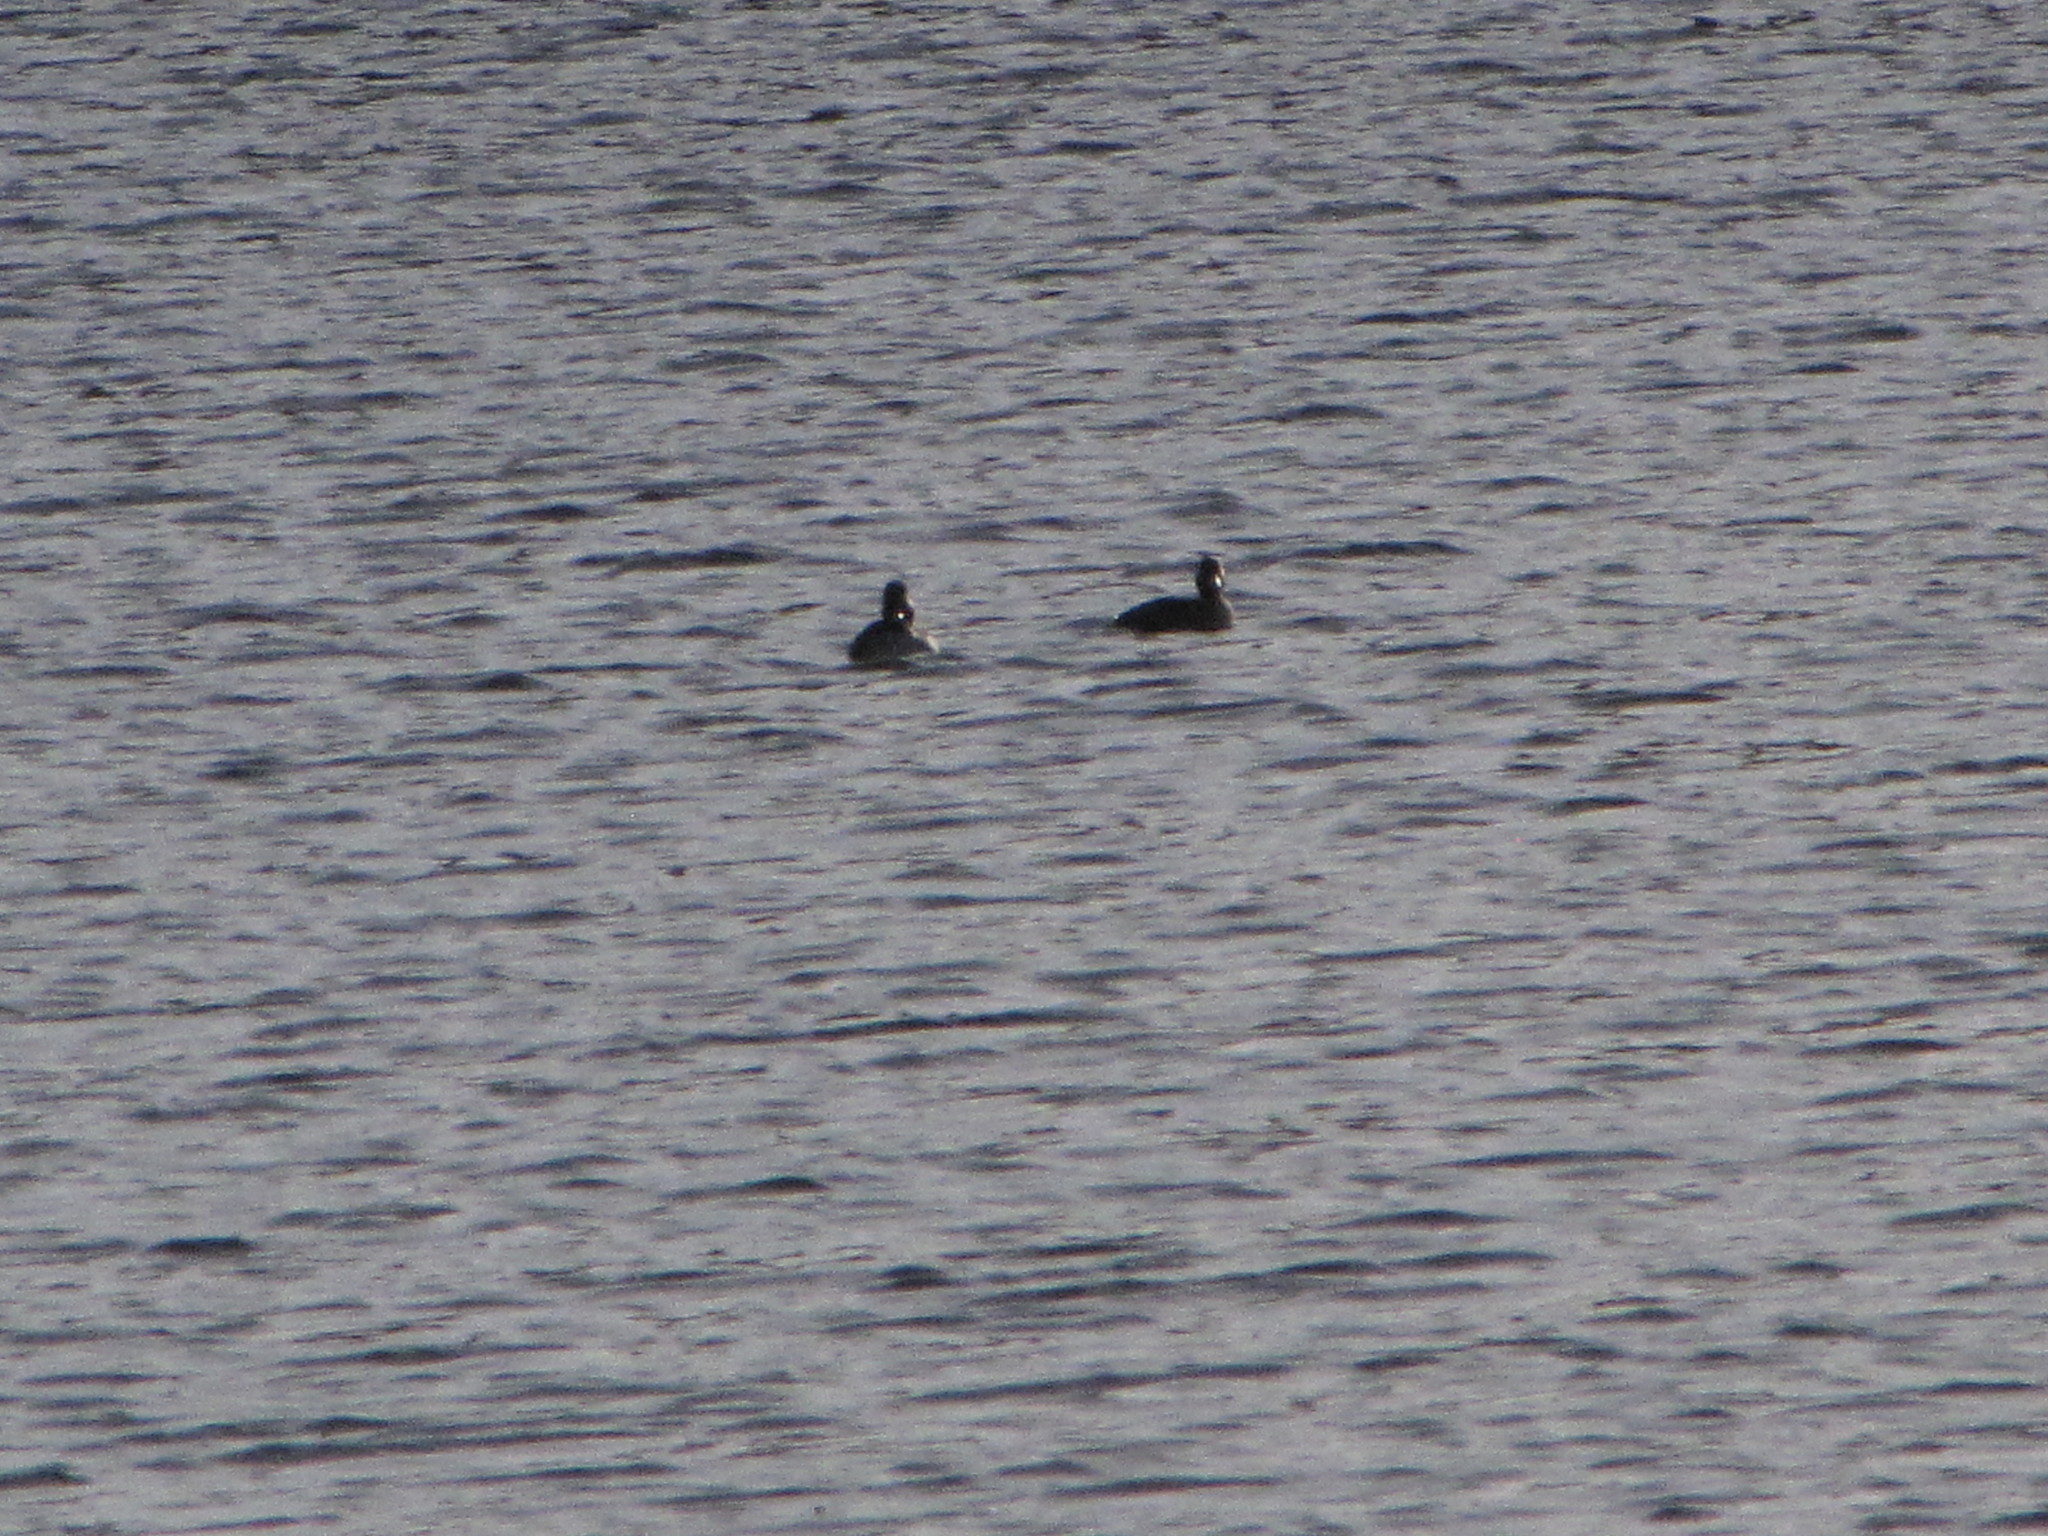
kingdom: Animalia
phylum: Chordata
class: Aves
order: Anseriformes
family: Anatidae
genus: Bucephala
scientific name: Bucephala albeola
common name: Bufflehead
